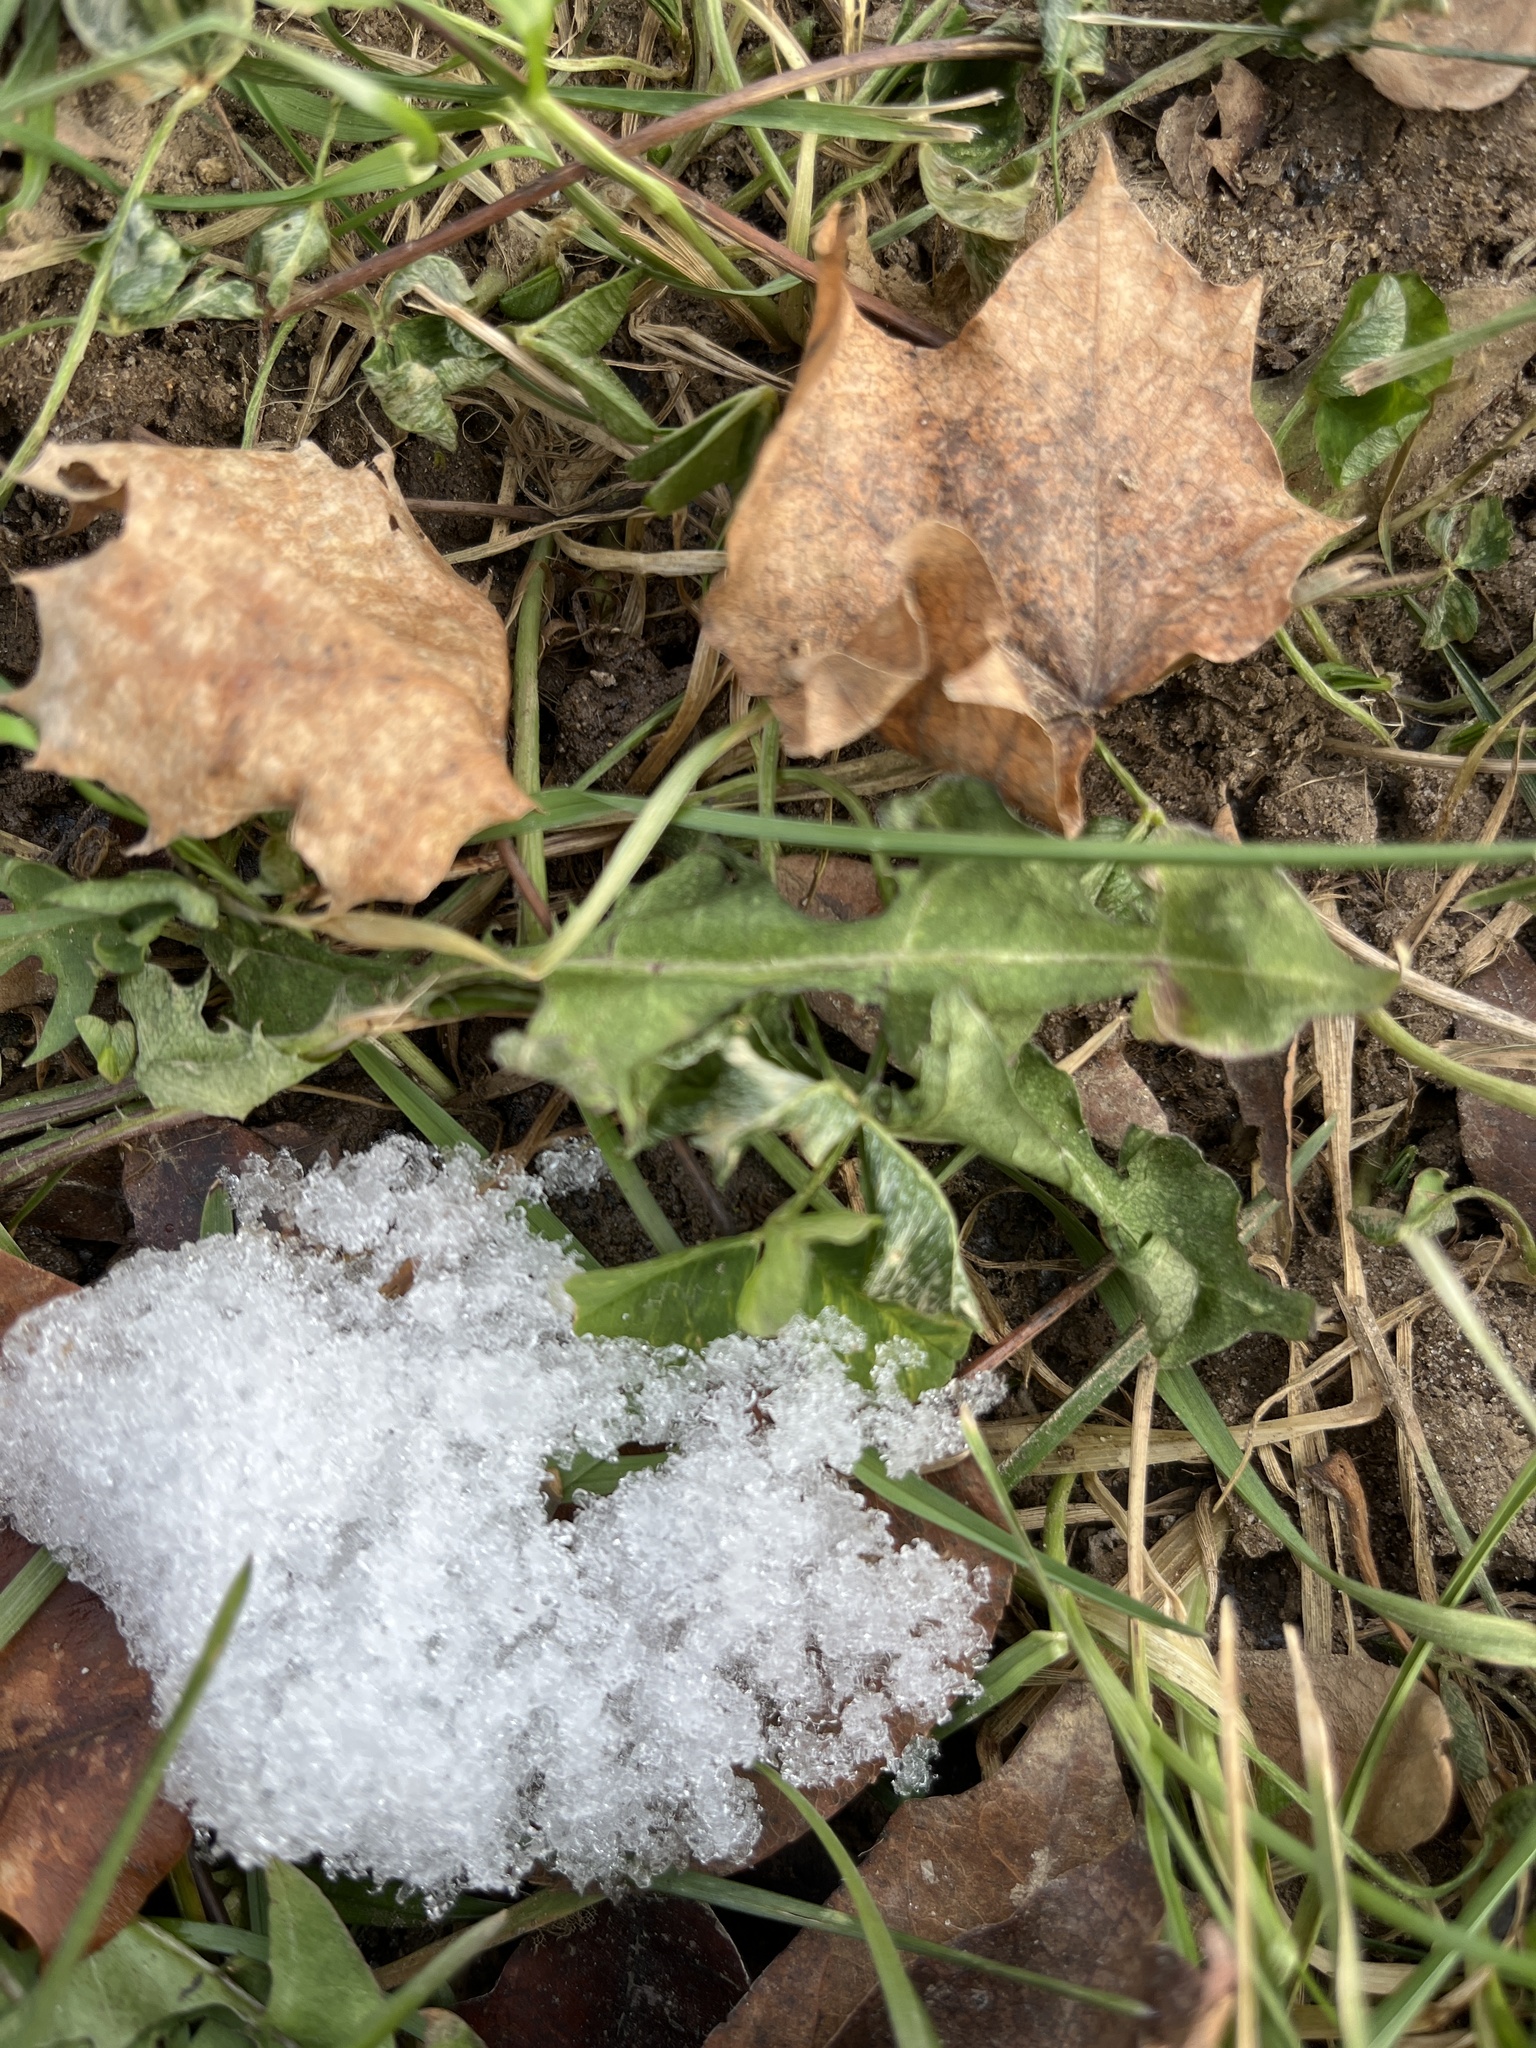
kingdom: Plantae
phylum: Tracheophyta
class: Magnoliopsida
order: Asterales
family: Asteraceae
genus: Taraxacum
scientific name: Taraxacum officinale
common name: Common dandelion
